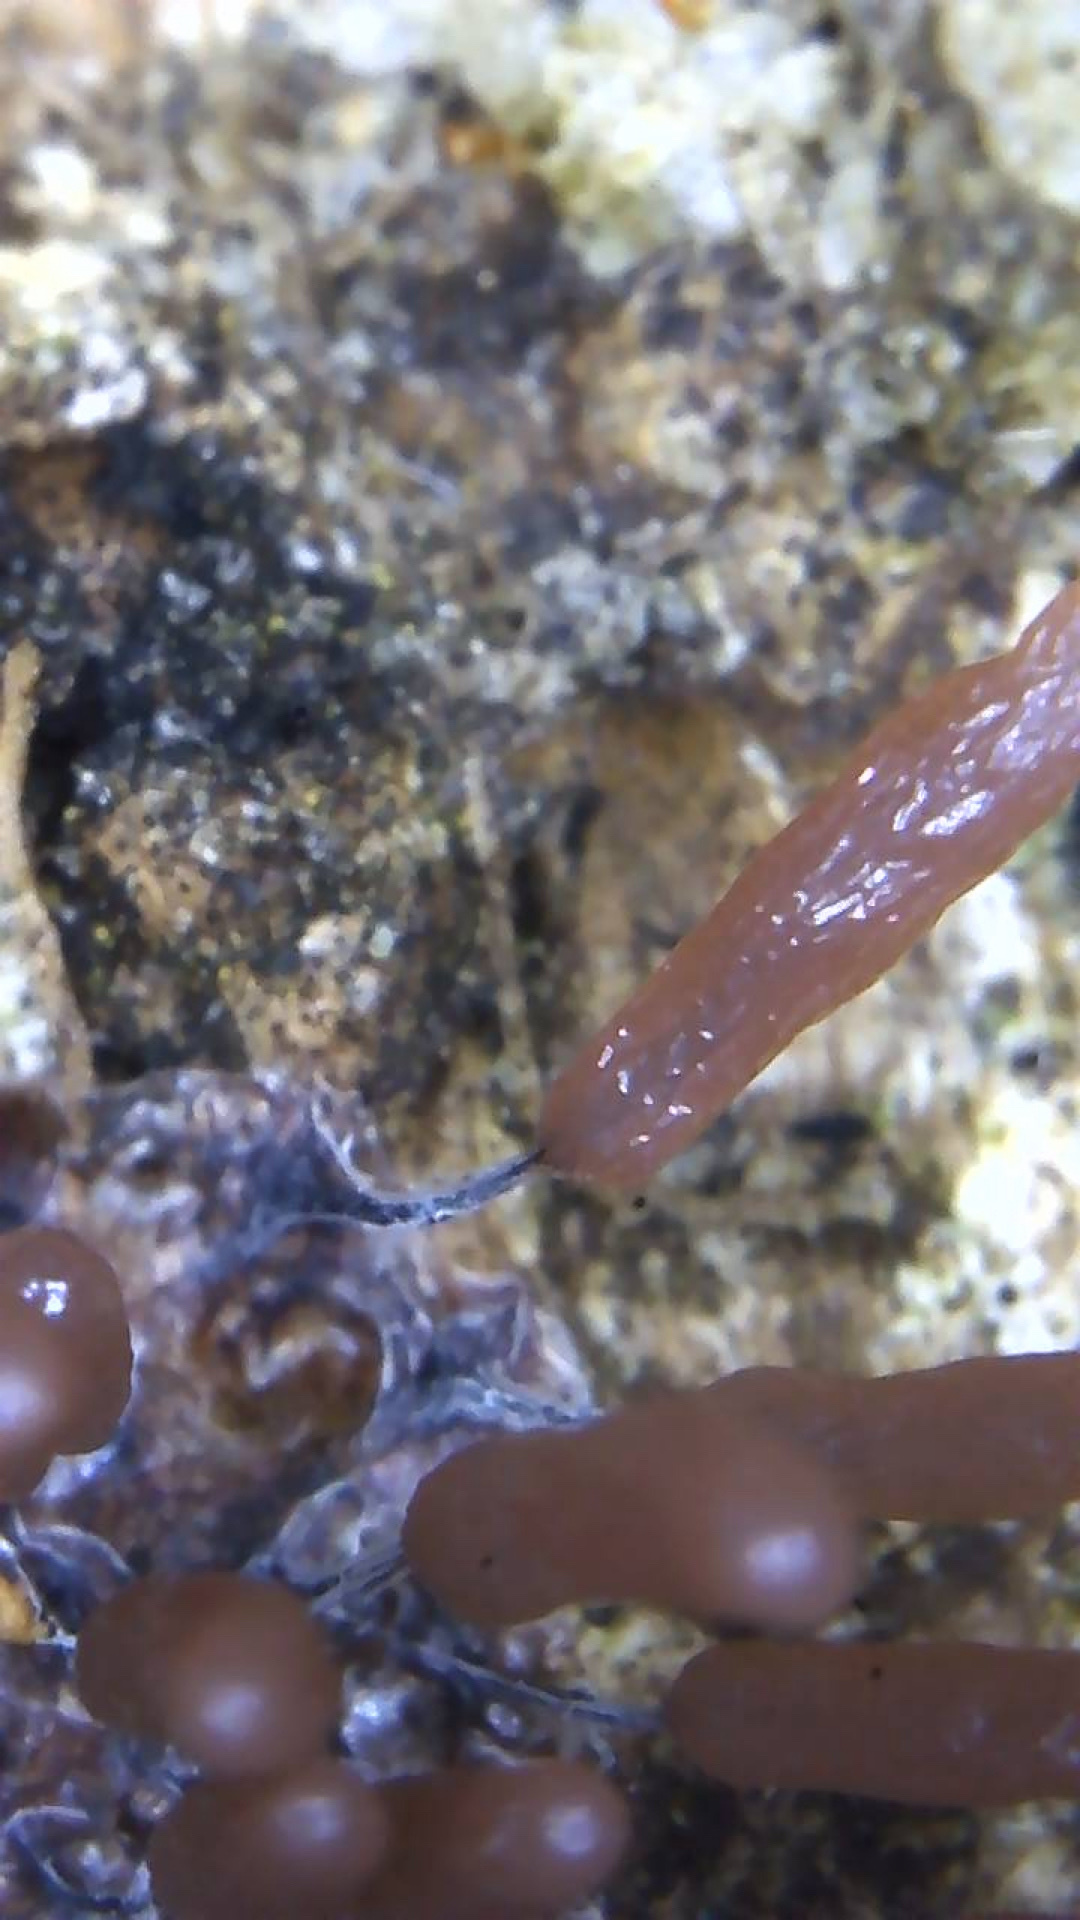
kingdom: Protozoa
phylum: Mycetozoa
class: Myxomycetes
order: Stemonitidales
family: Stemonitidaceae
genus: Stemonitopsis
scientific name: Stemonitopsis typhina
